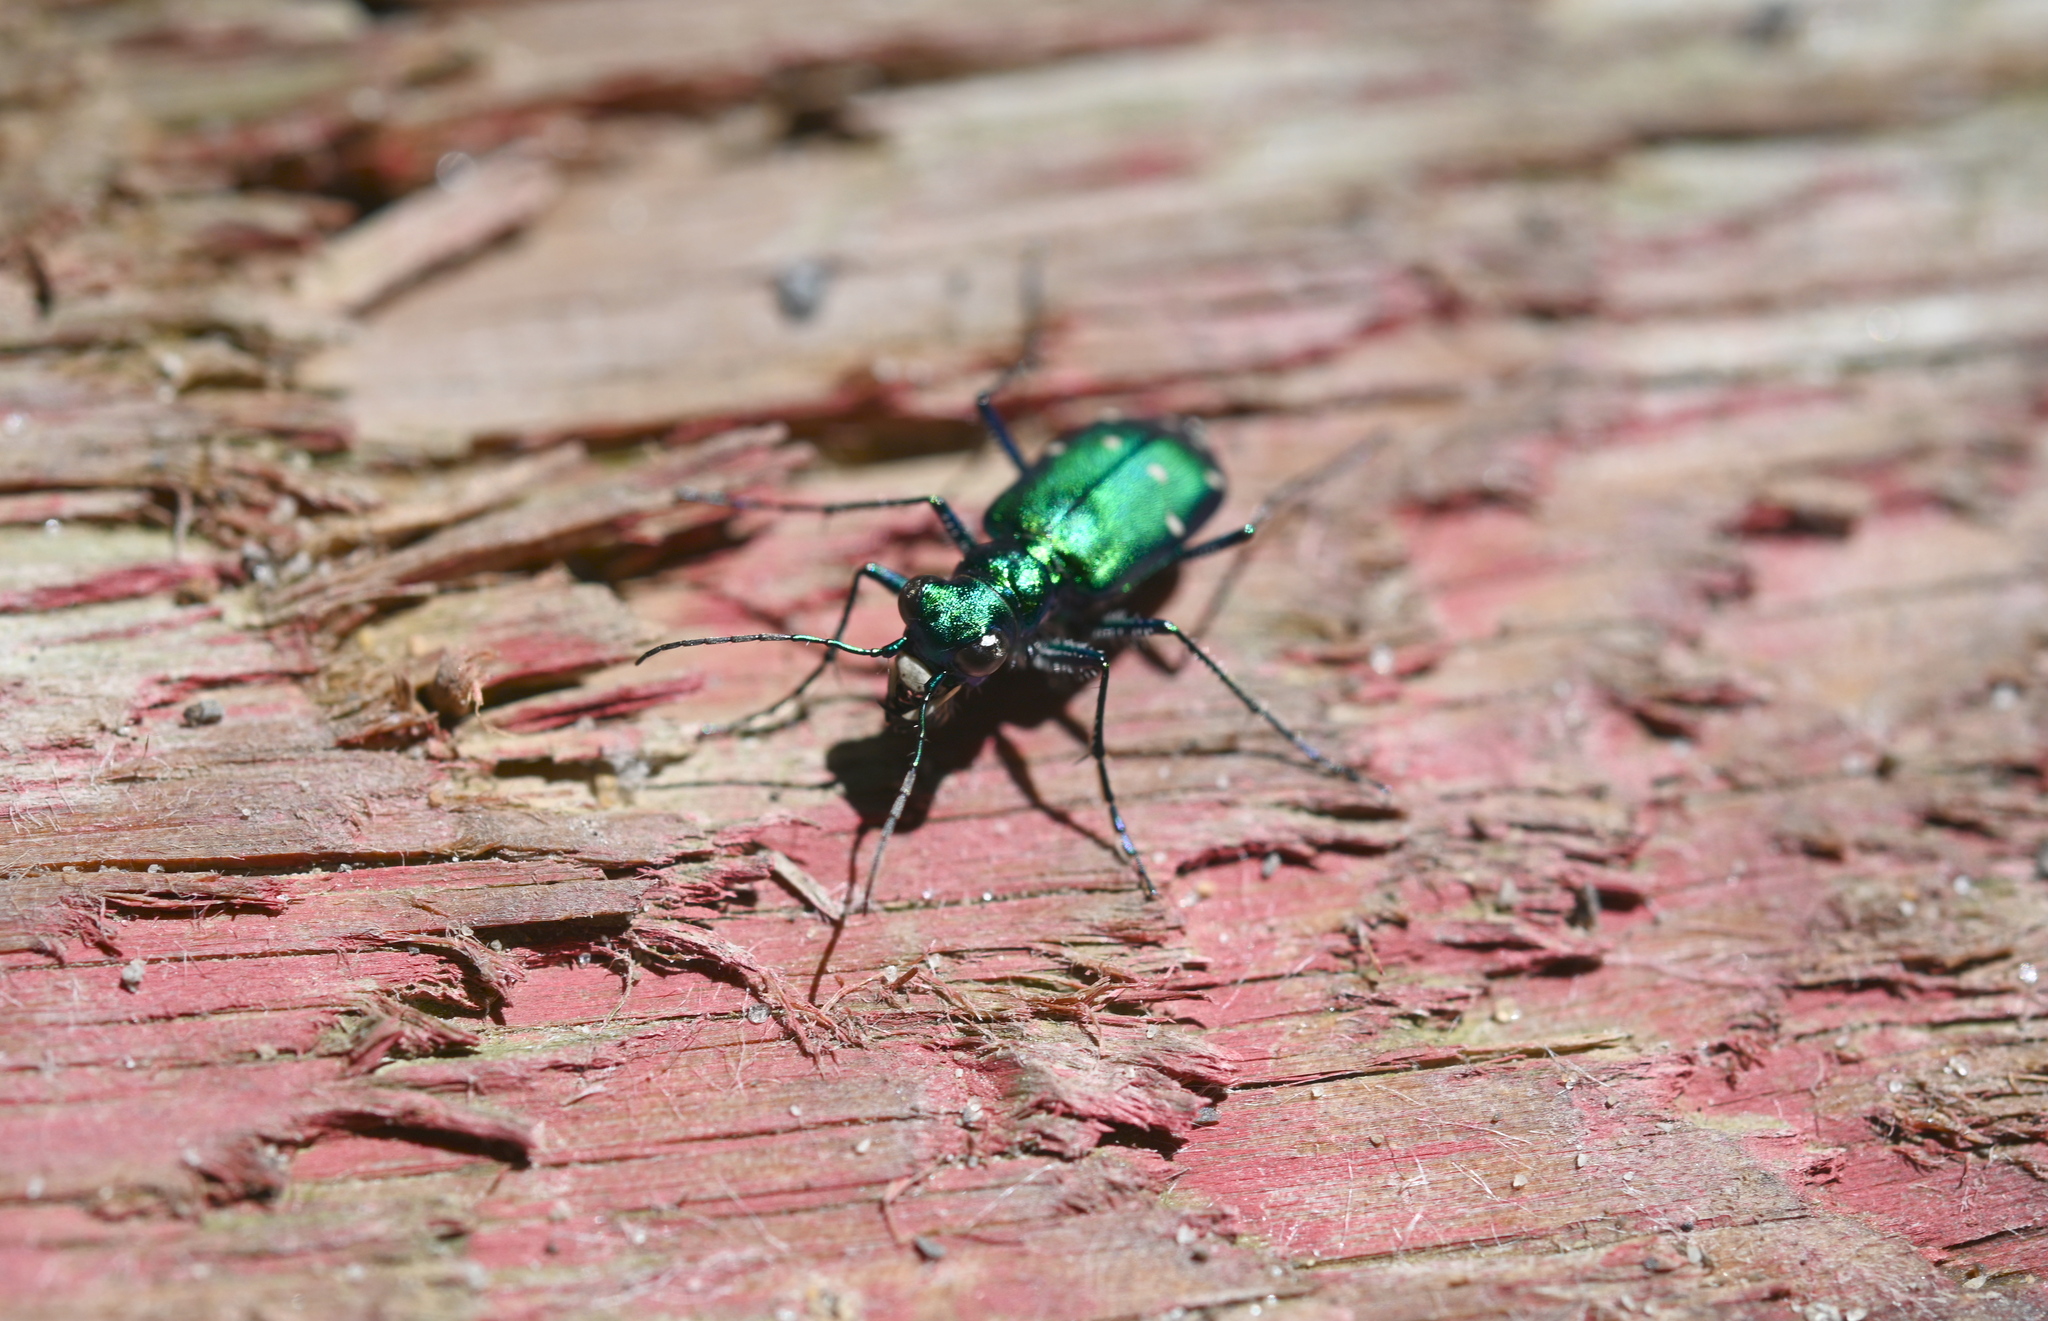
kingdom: Animalia
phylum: Arthropoda
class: Insecta
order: Coleoptera
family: Carabidae
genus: Cicindela
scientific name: Cicindela sexguttata
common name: Six-spotted tiger beetle
